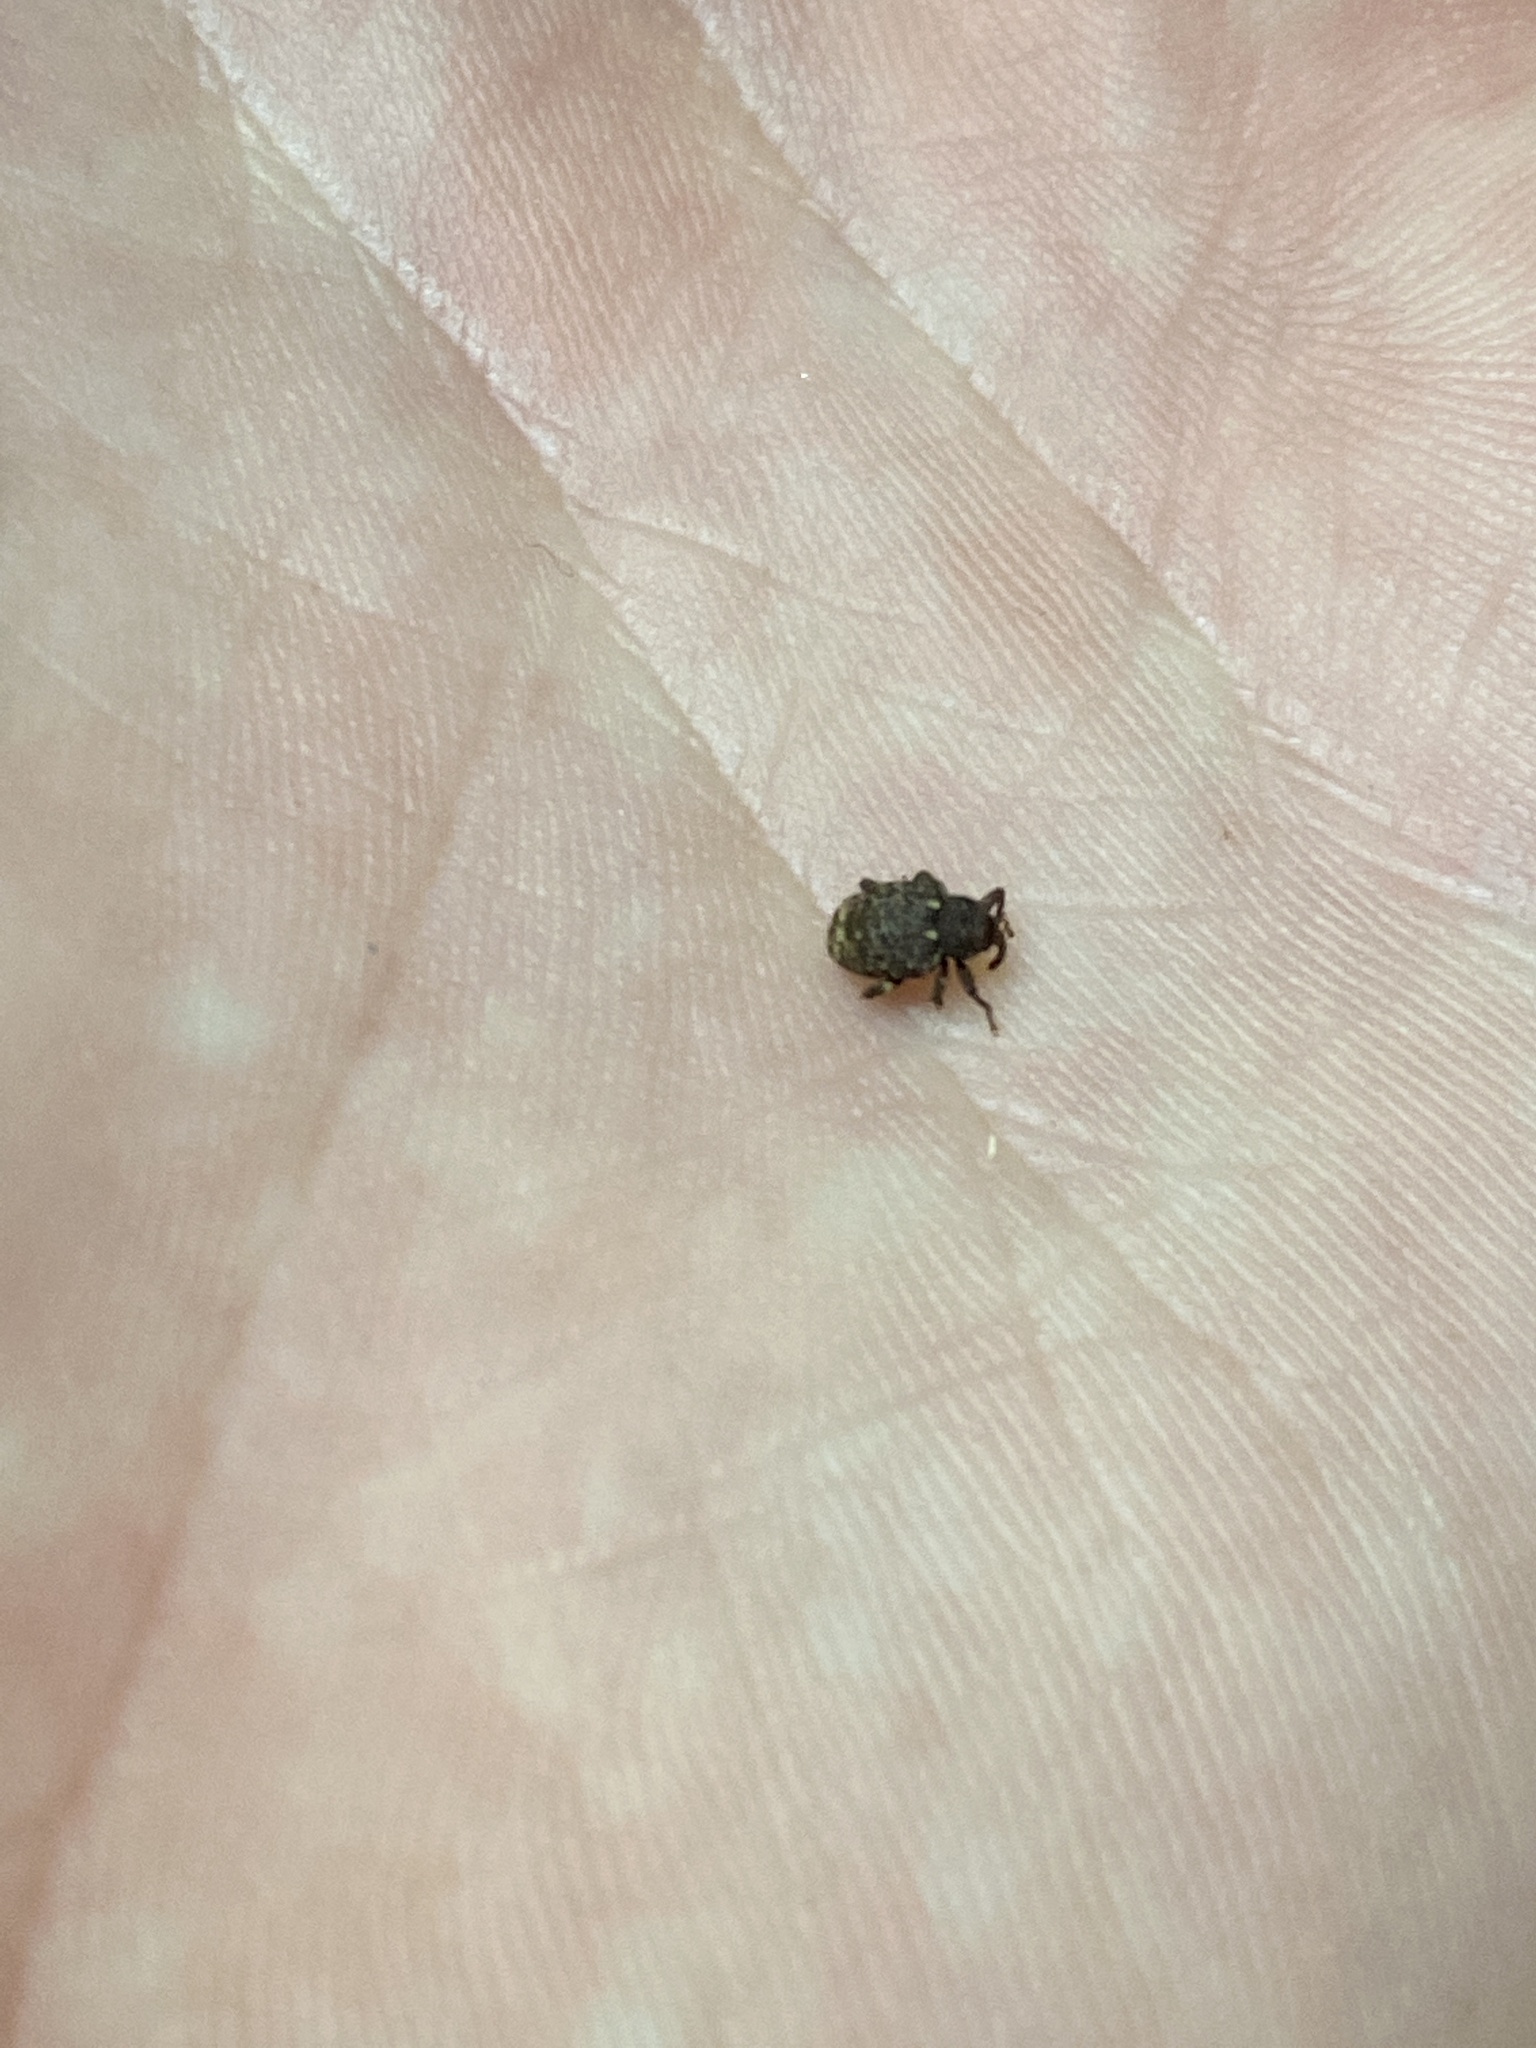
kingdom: Animalia
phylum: Arthropoda
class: Insecta
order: Coleoptera
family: Curculionidae
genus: Conotrachelus
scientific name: Conotrachelus posticatus
